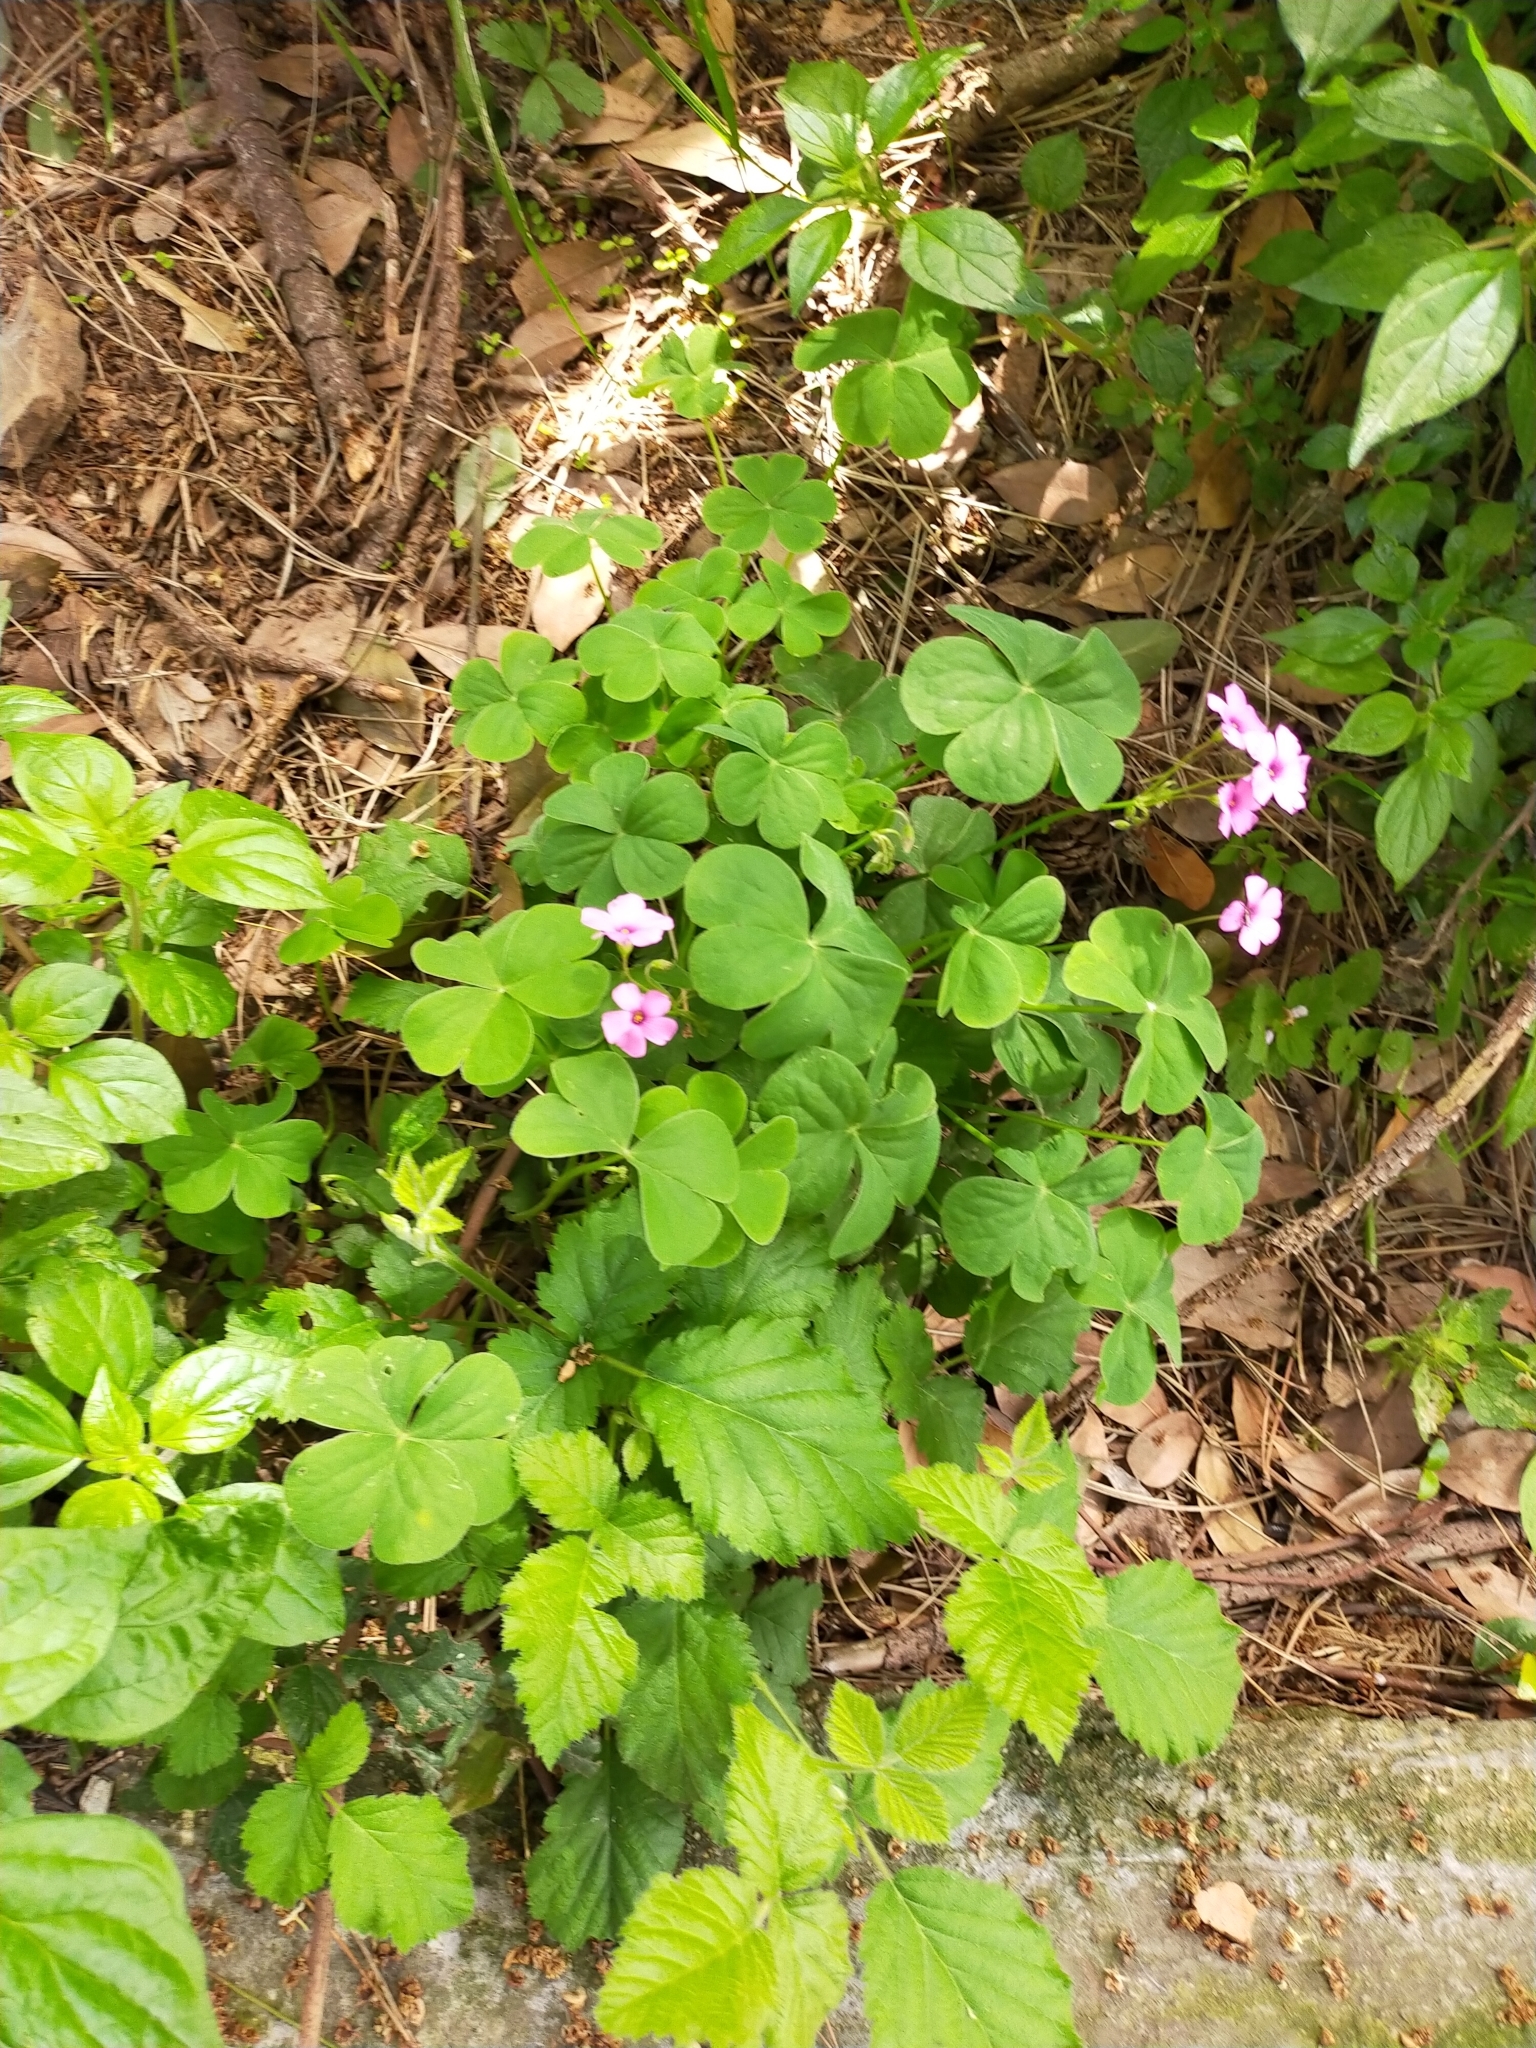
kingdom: Plantae
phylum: Tracheophyta
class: Magnoliopsida
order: Oxalidales
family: Oxalidaceae
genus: Oxalis
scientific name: Oxalis articulata
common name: Pink-sorrel
